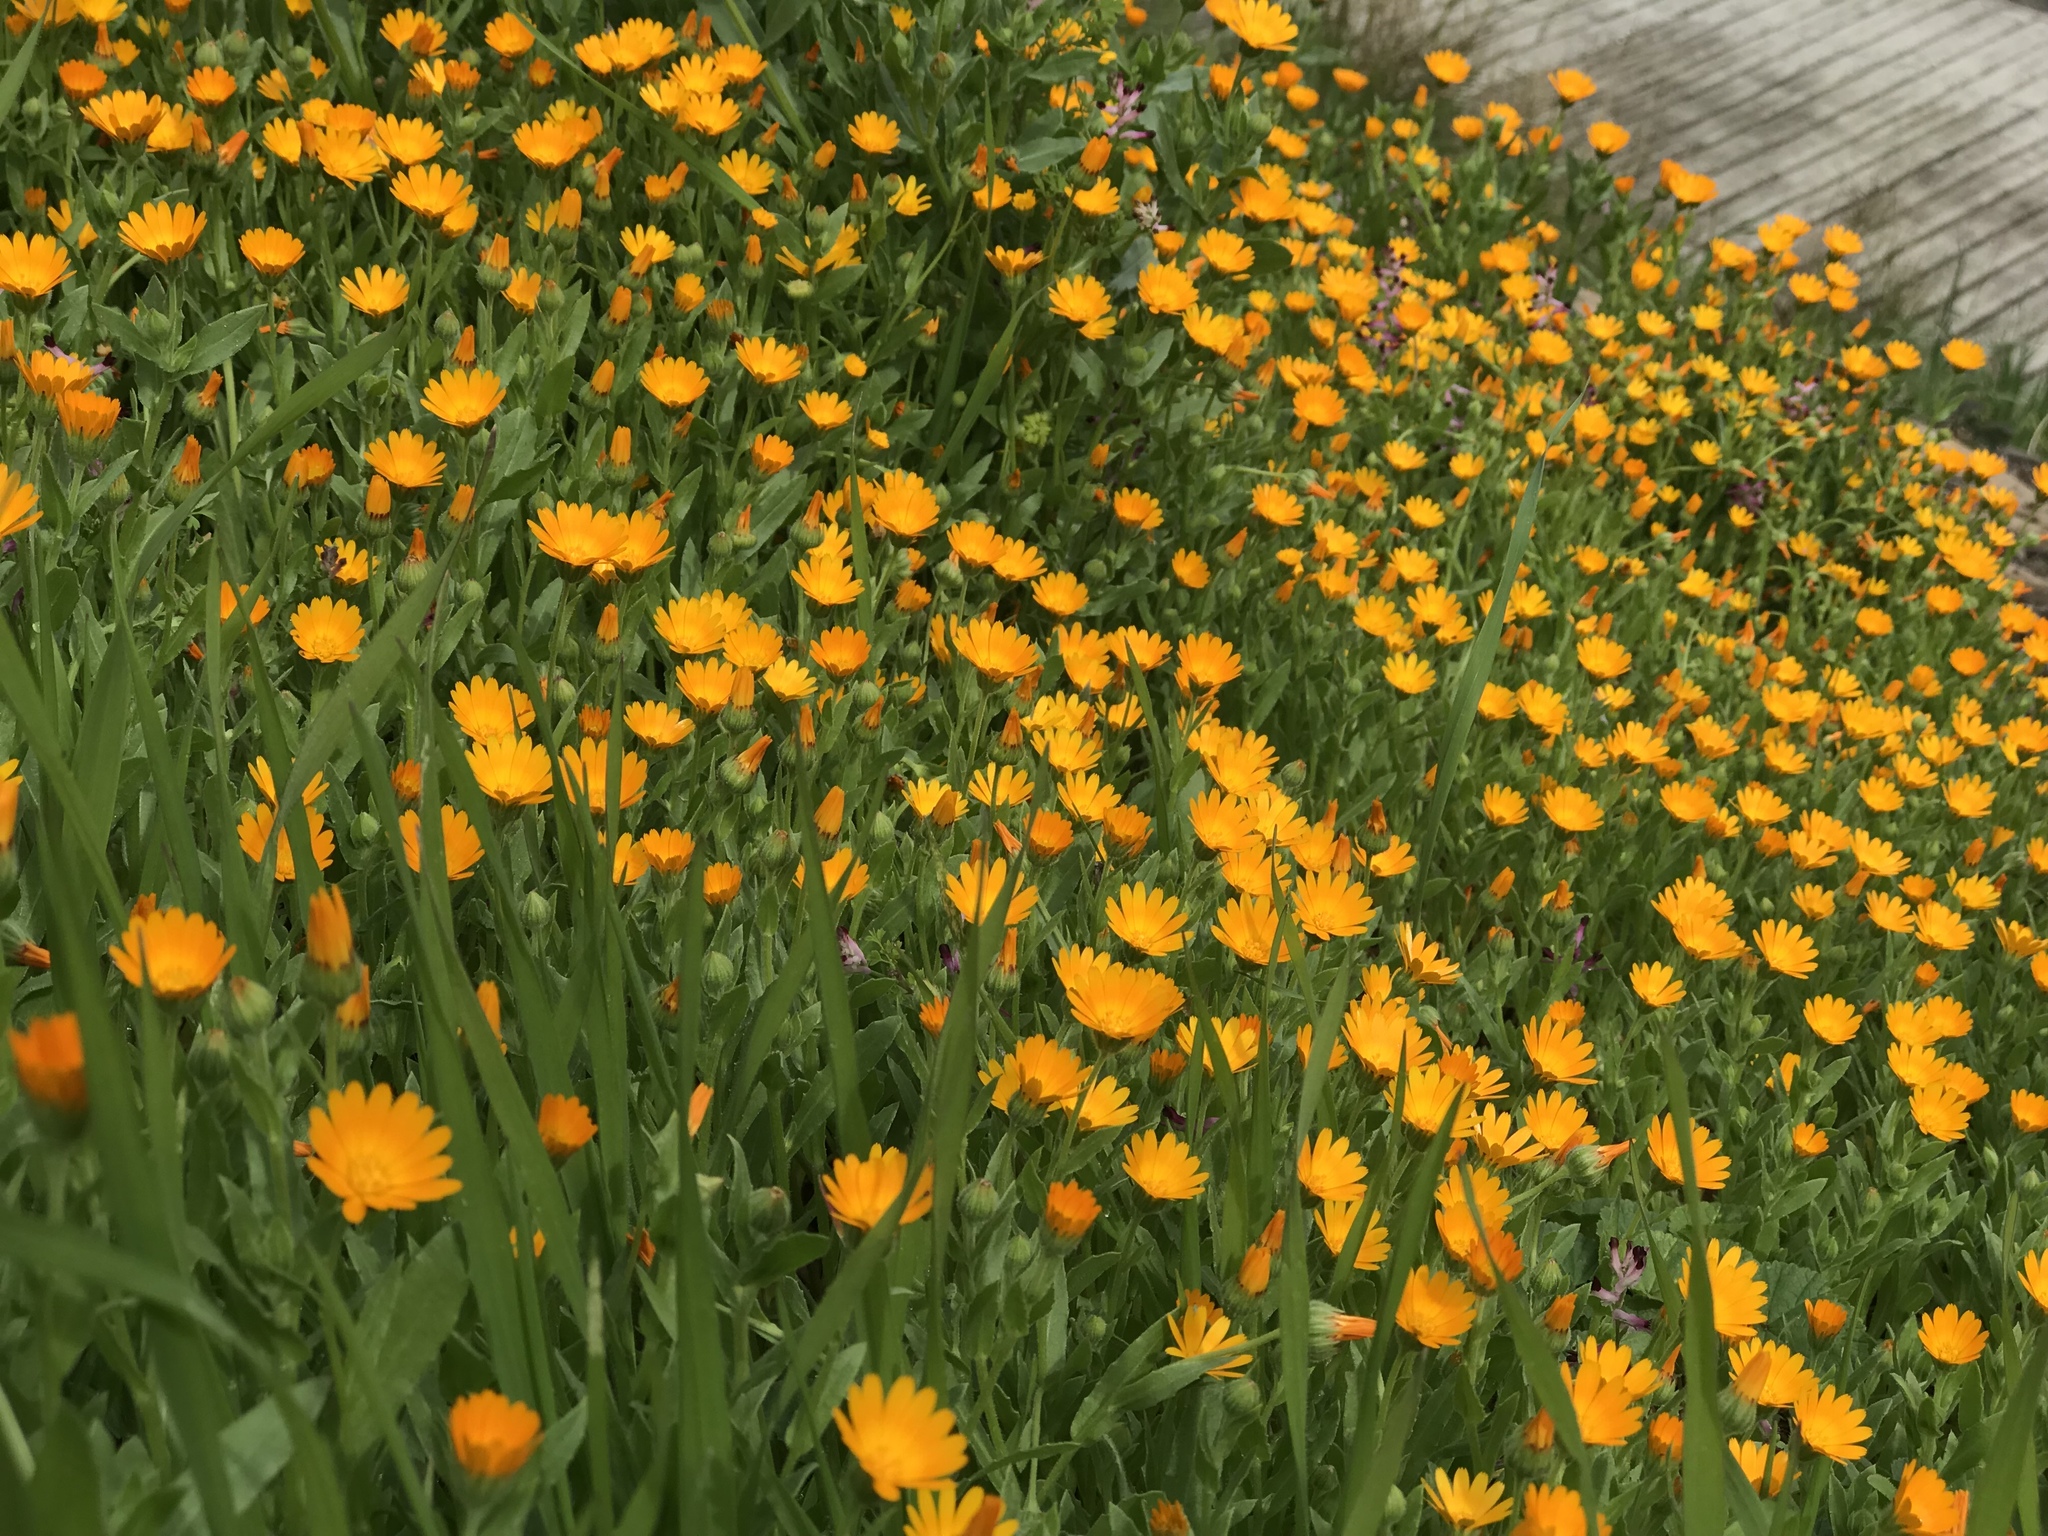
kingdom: Plantae
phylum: Tracheophyta
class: Magnoliopsida
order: Asterales
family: Asteraceae
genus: Calendula
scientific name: Calendula arvensis
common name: Field marigold
